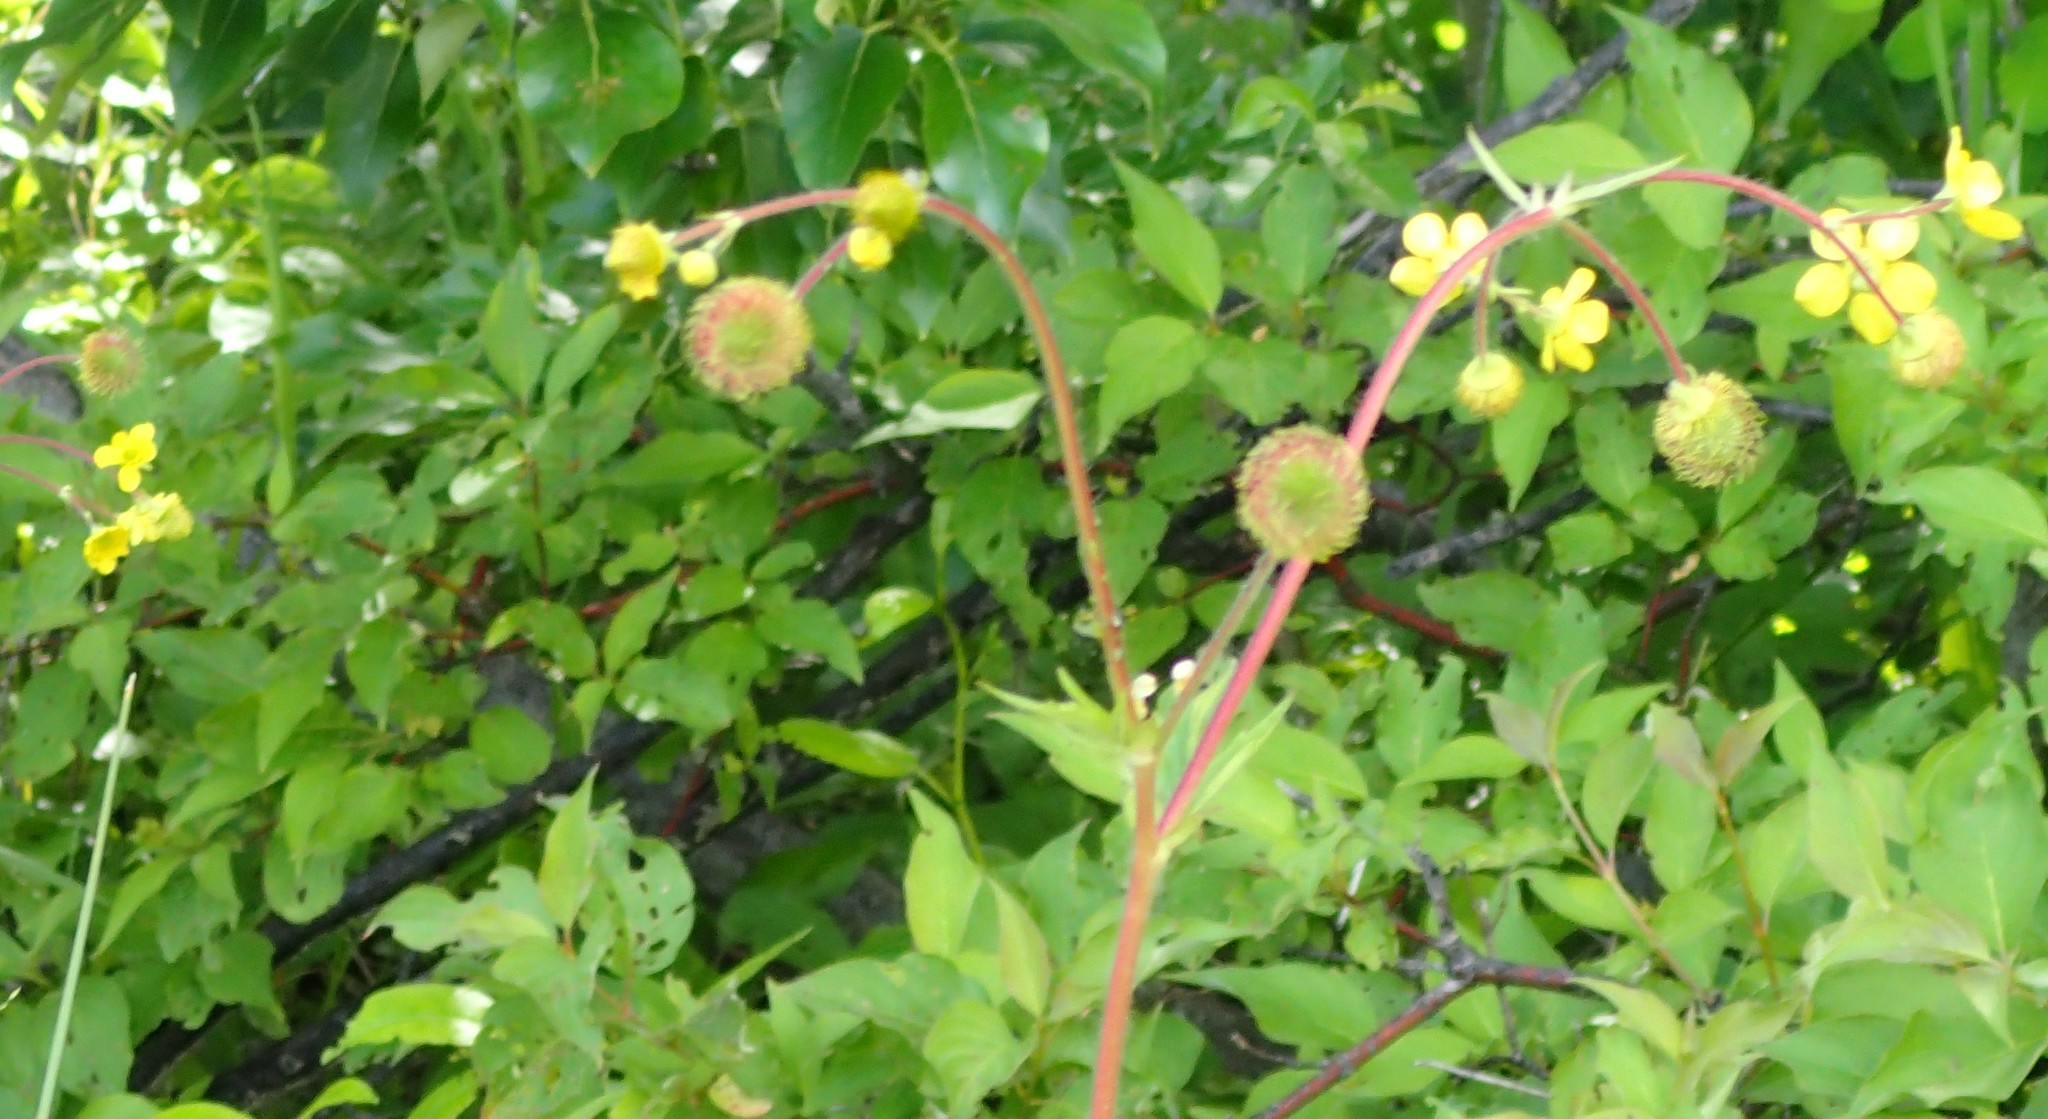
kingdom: Plantae
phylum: Tracheophyta
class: Magnoliopsida
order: Rosales
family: Rosaceae
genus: Geum
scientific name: Geum macrophyllum
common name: Large-leaved avens
